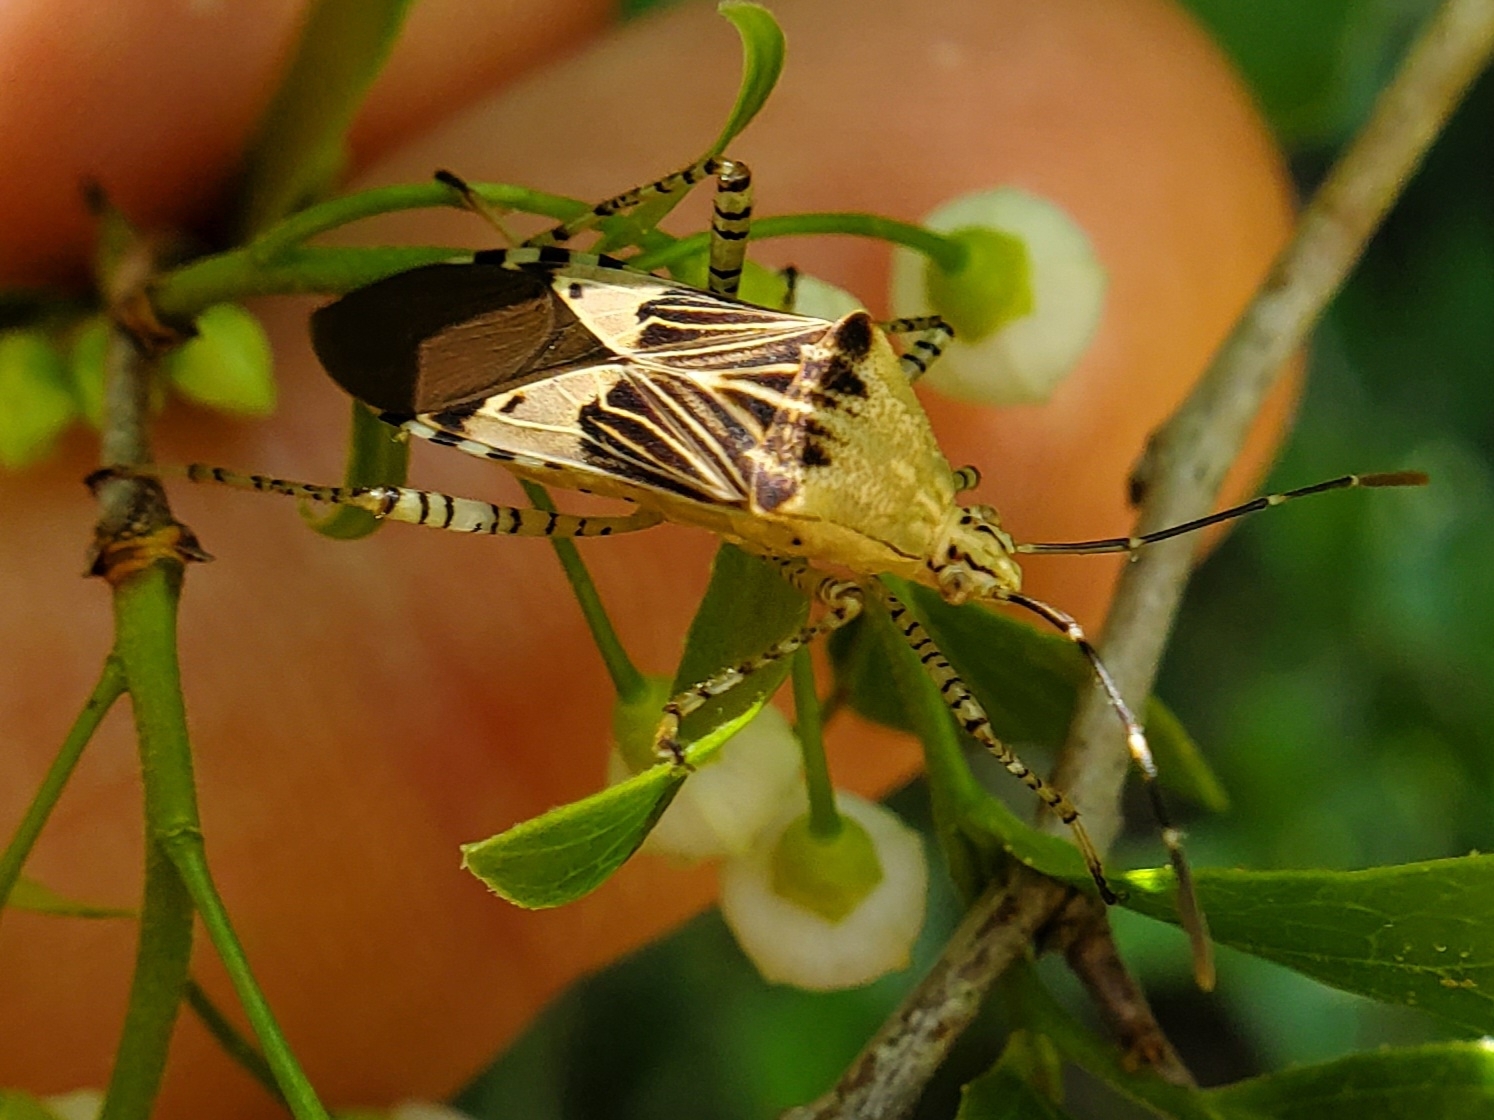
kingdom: Animalia
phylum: Arthropoda
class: Insecta
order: Hemiptera
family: Coreidae
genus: Hypselonotus
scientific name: Hypselonotus punctiventris
